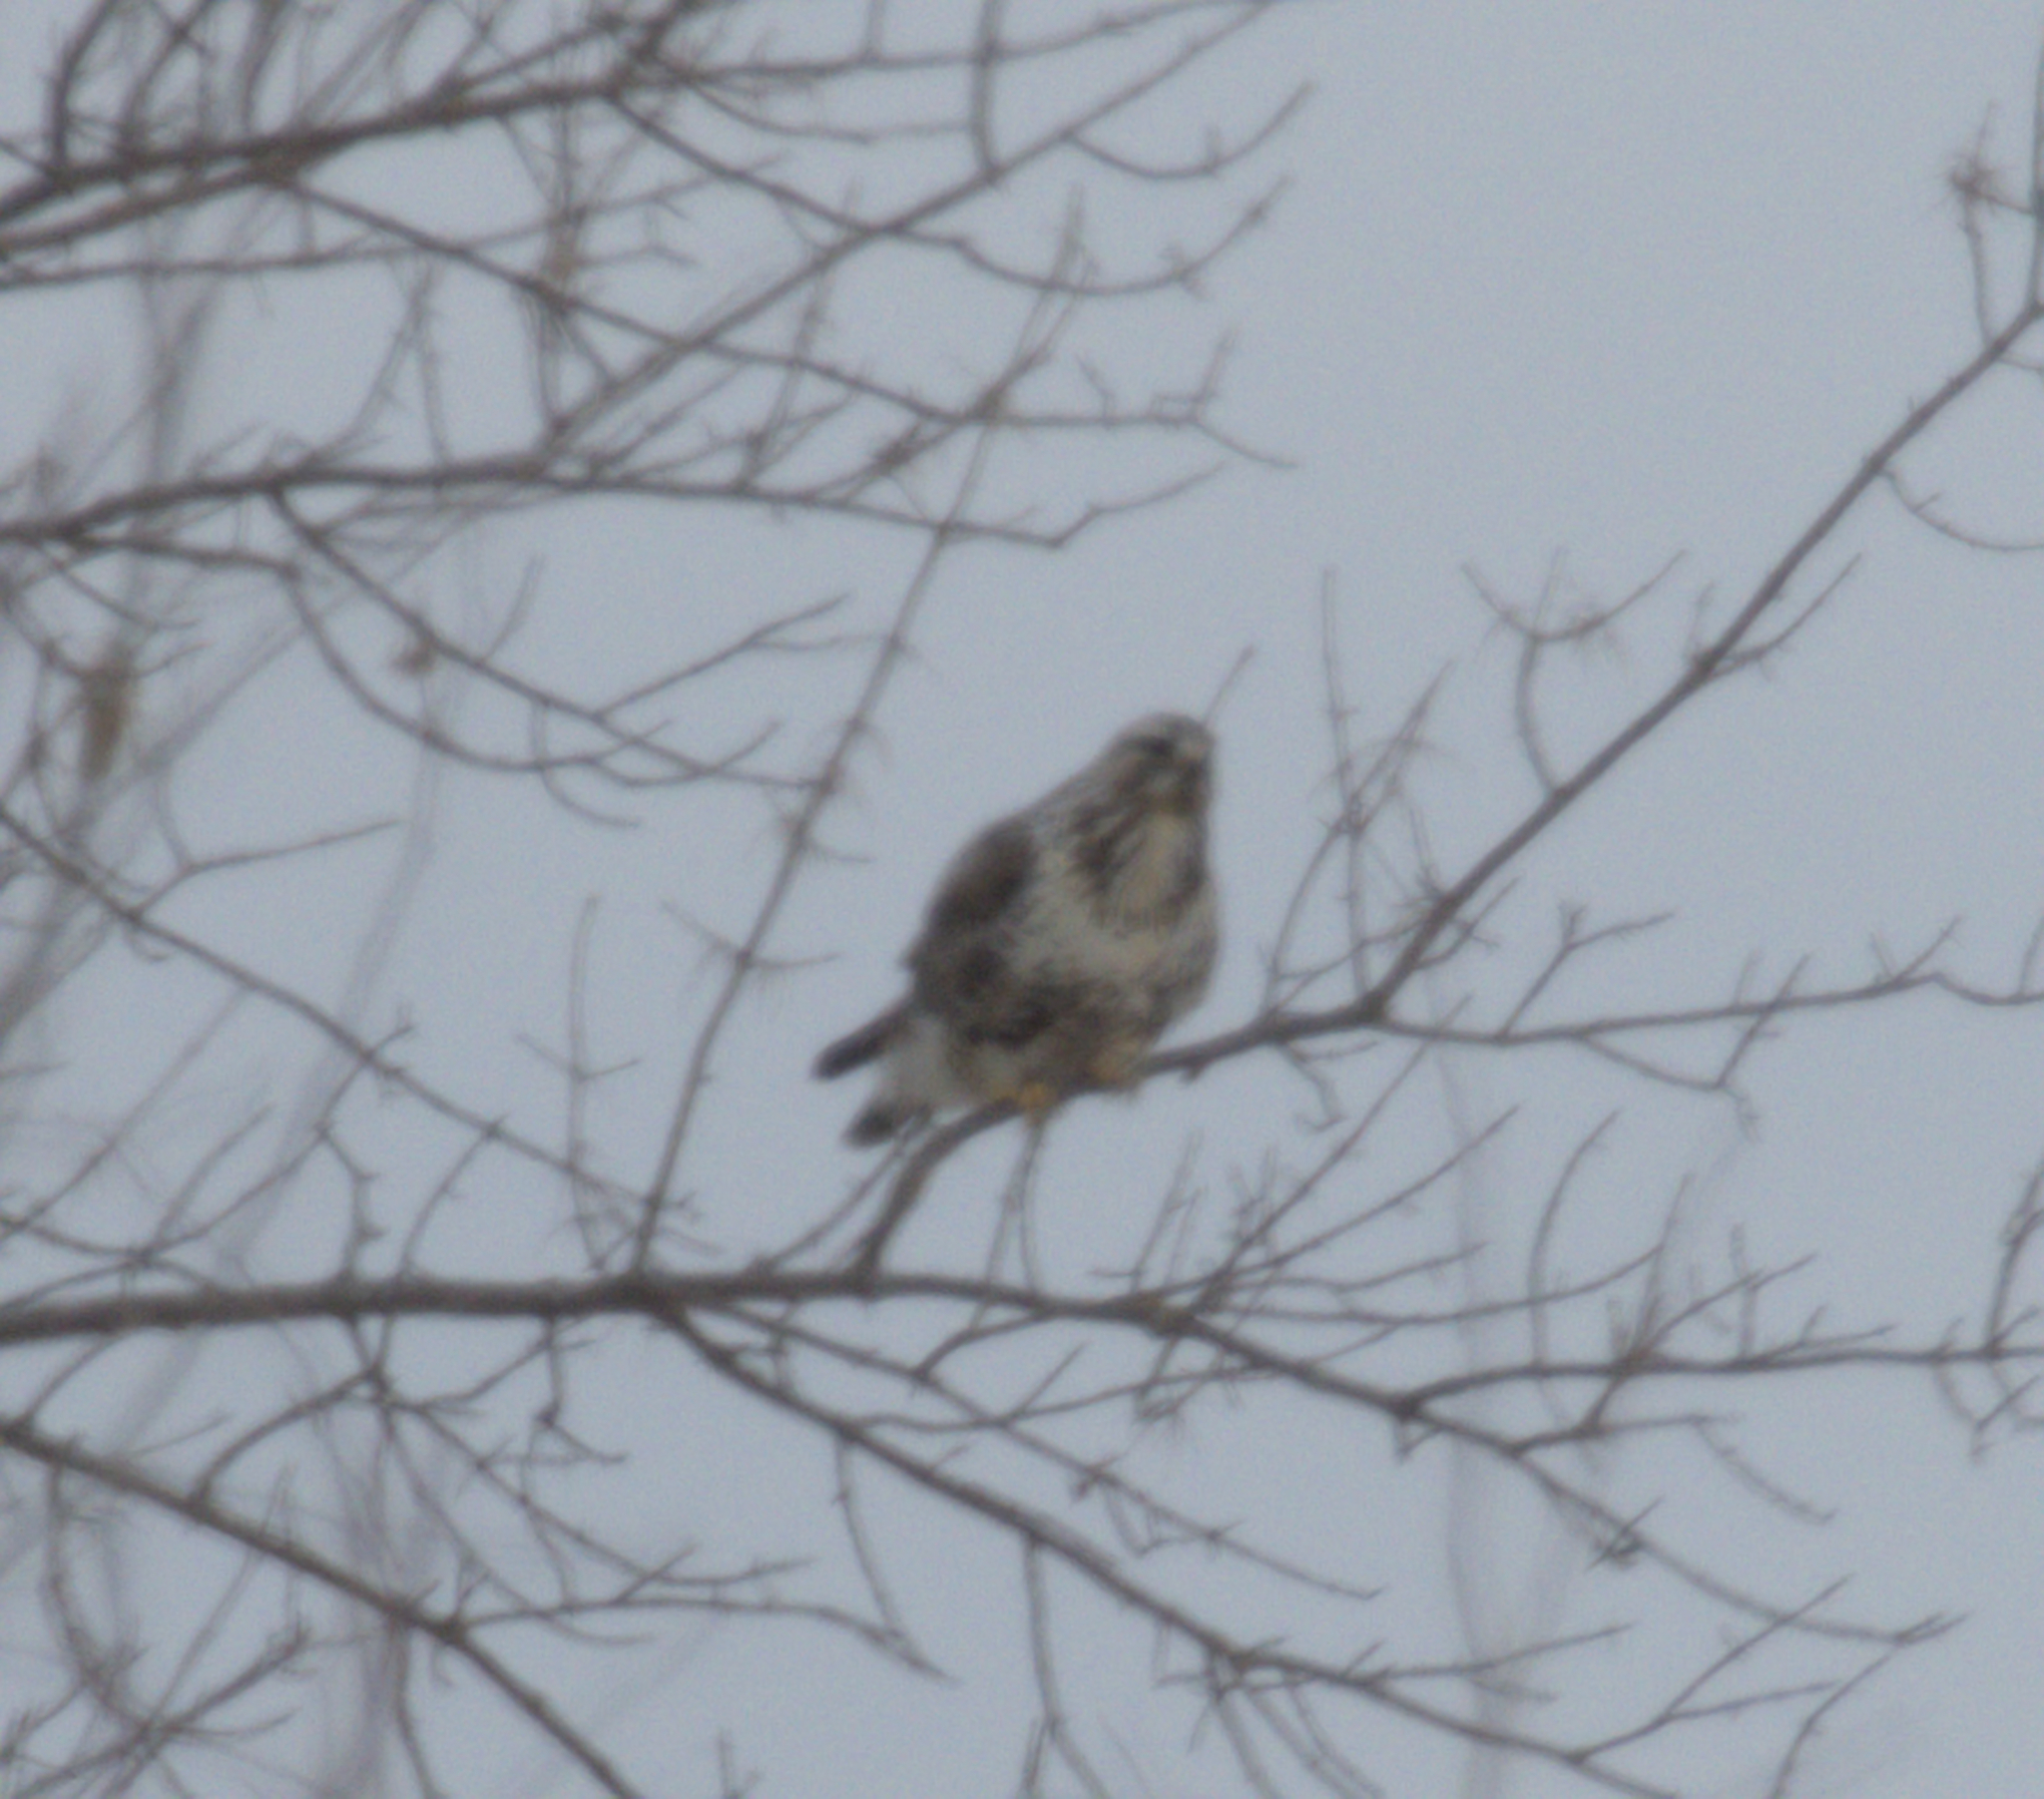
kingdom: Animalia
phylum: Chordata
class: Aves
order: Accipitriformes
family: Accipitridae
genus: Buteo
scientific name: Buteo lagopus
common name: Rough-legged buzzard
